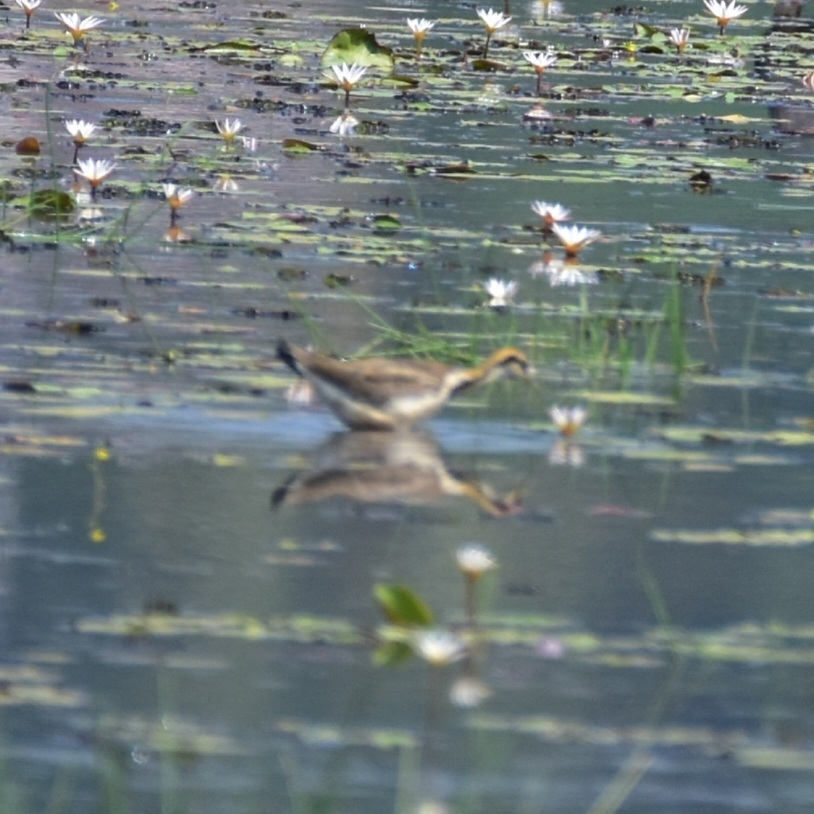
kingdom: Animalia
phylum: Chordata
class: Aves
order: Charadriiformes
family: Jacanidae
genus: Hydrophasianus
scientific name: Hydrophasianus chirurgus
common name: Pheasant-tailed jacana
